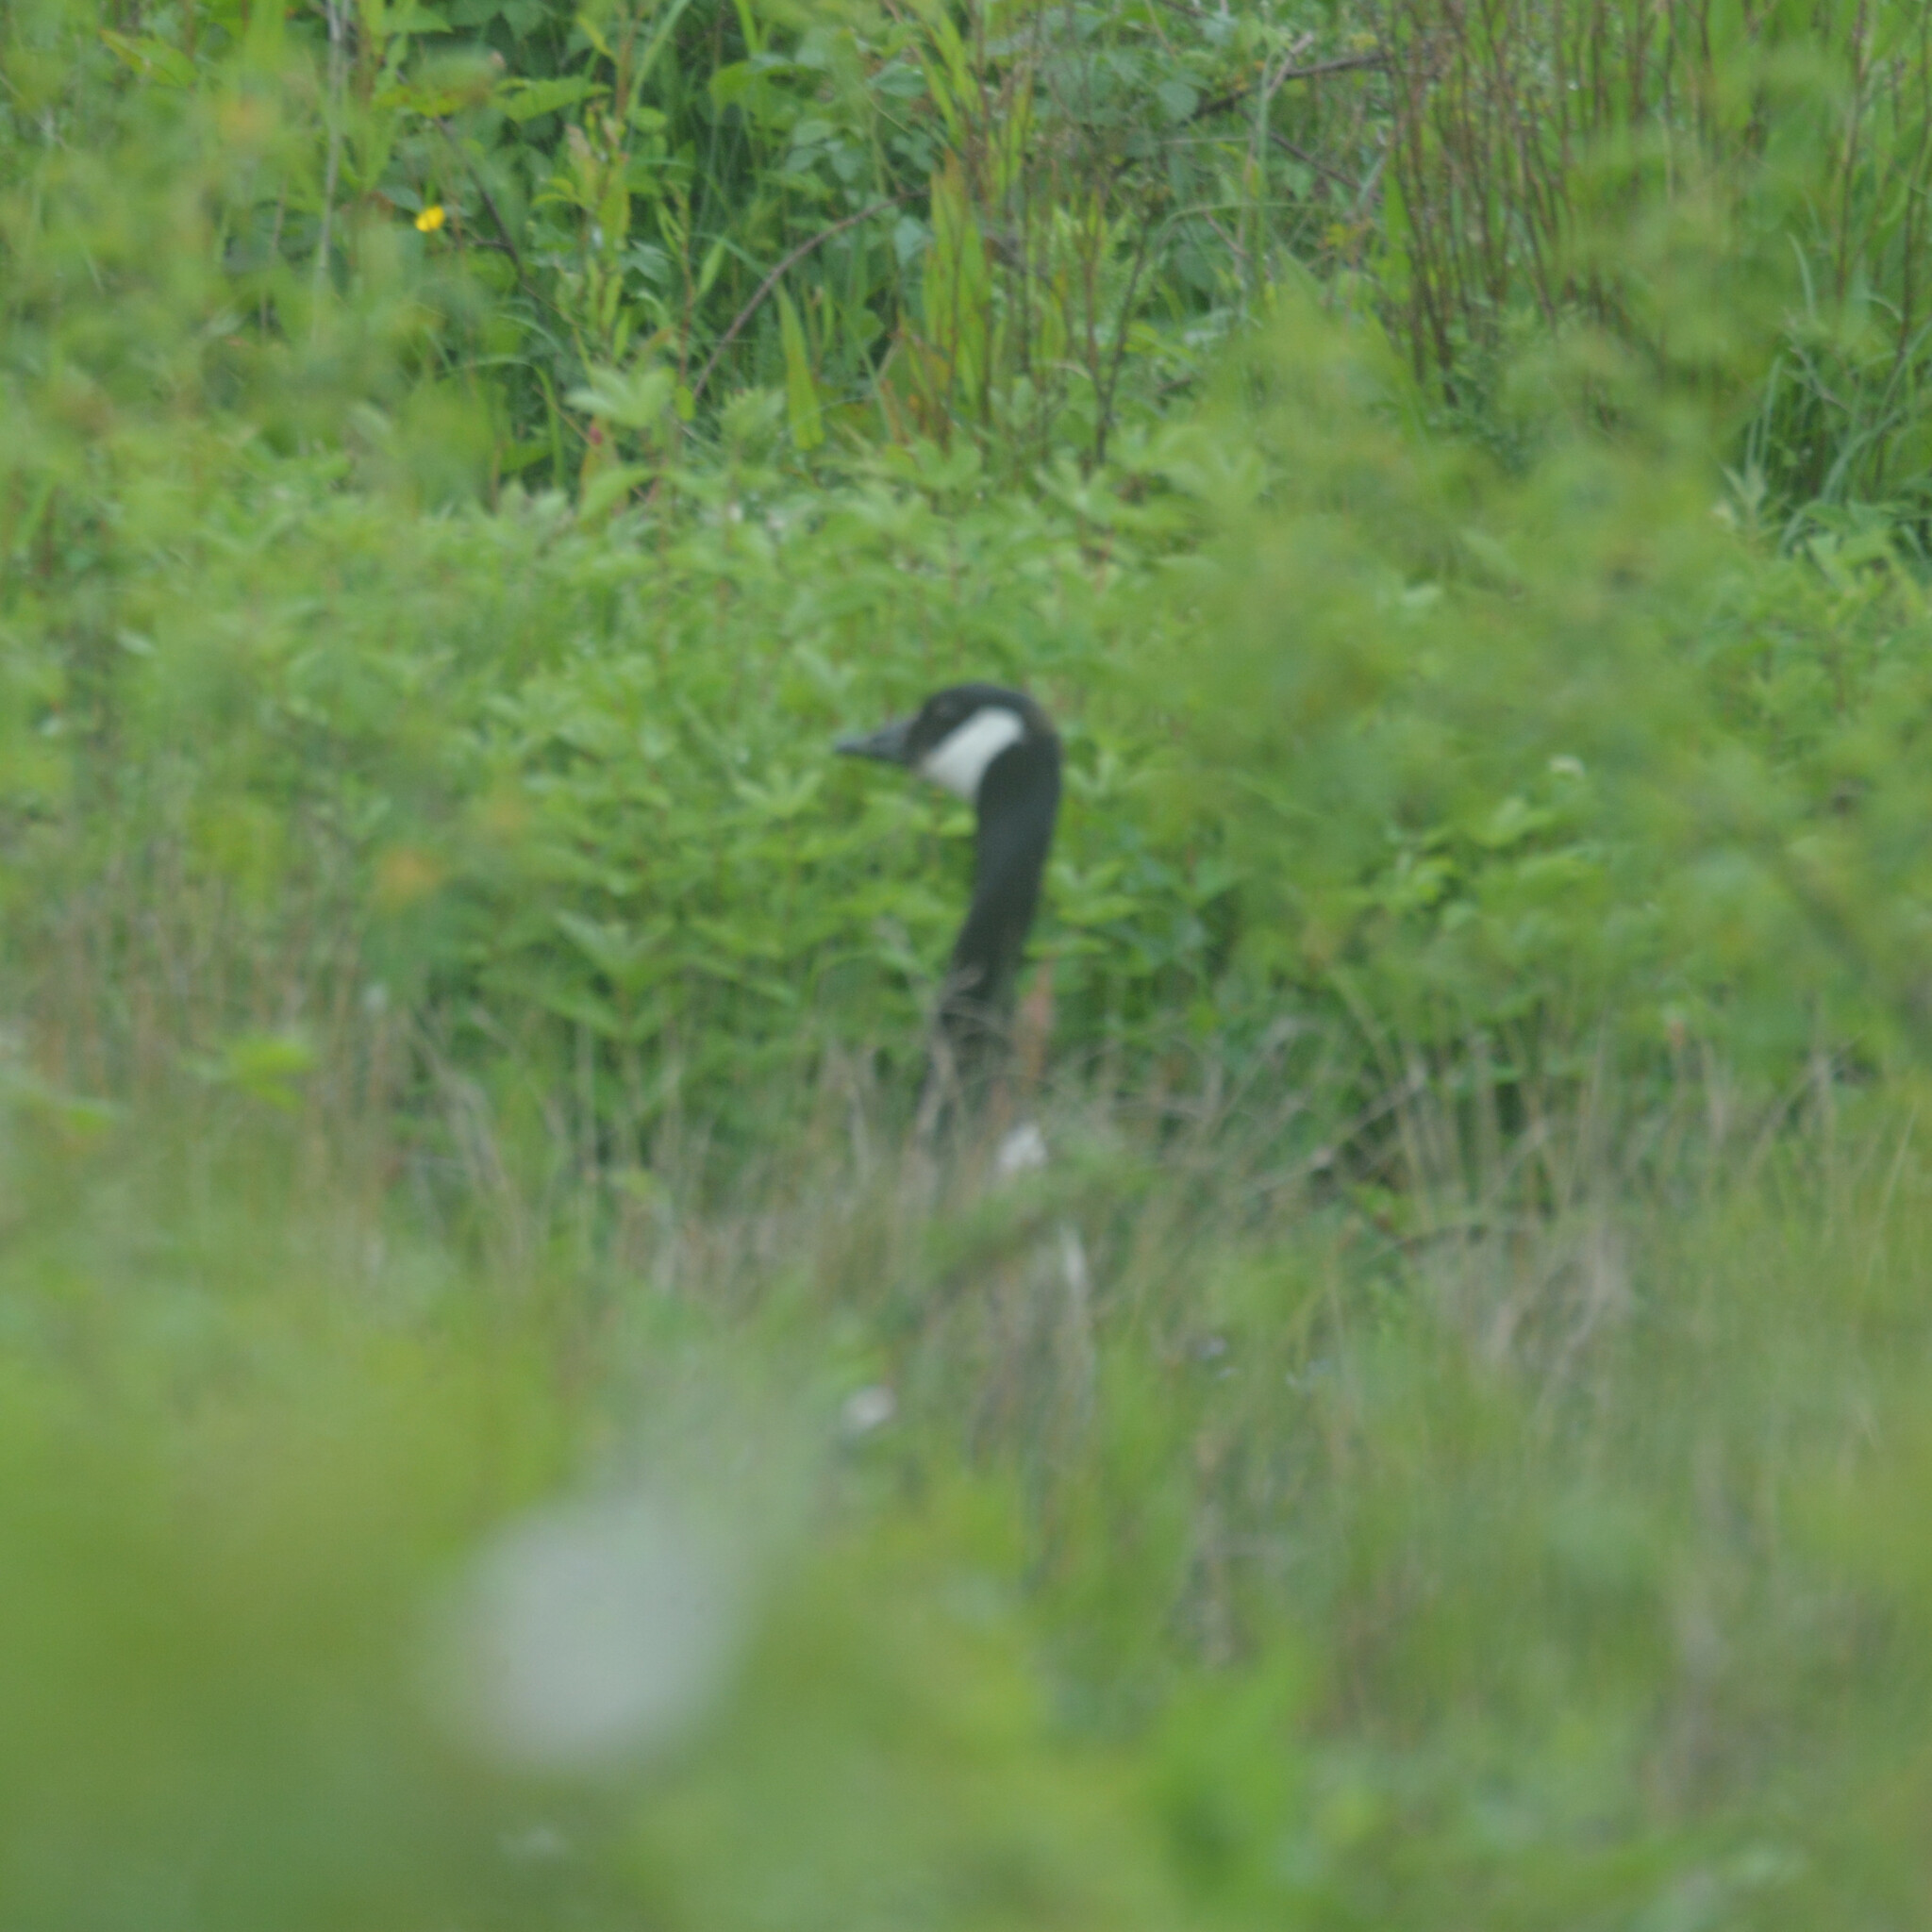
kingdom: Animalia
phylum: Chordata
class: Aves
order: Anseriformes
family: Anatidae
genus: Branta
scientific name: Branta canadensis
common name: Canada goose
